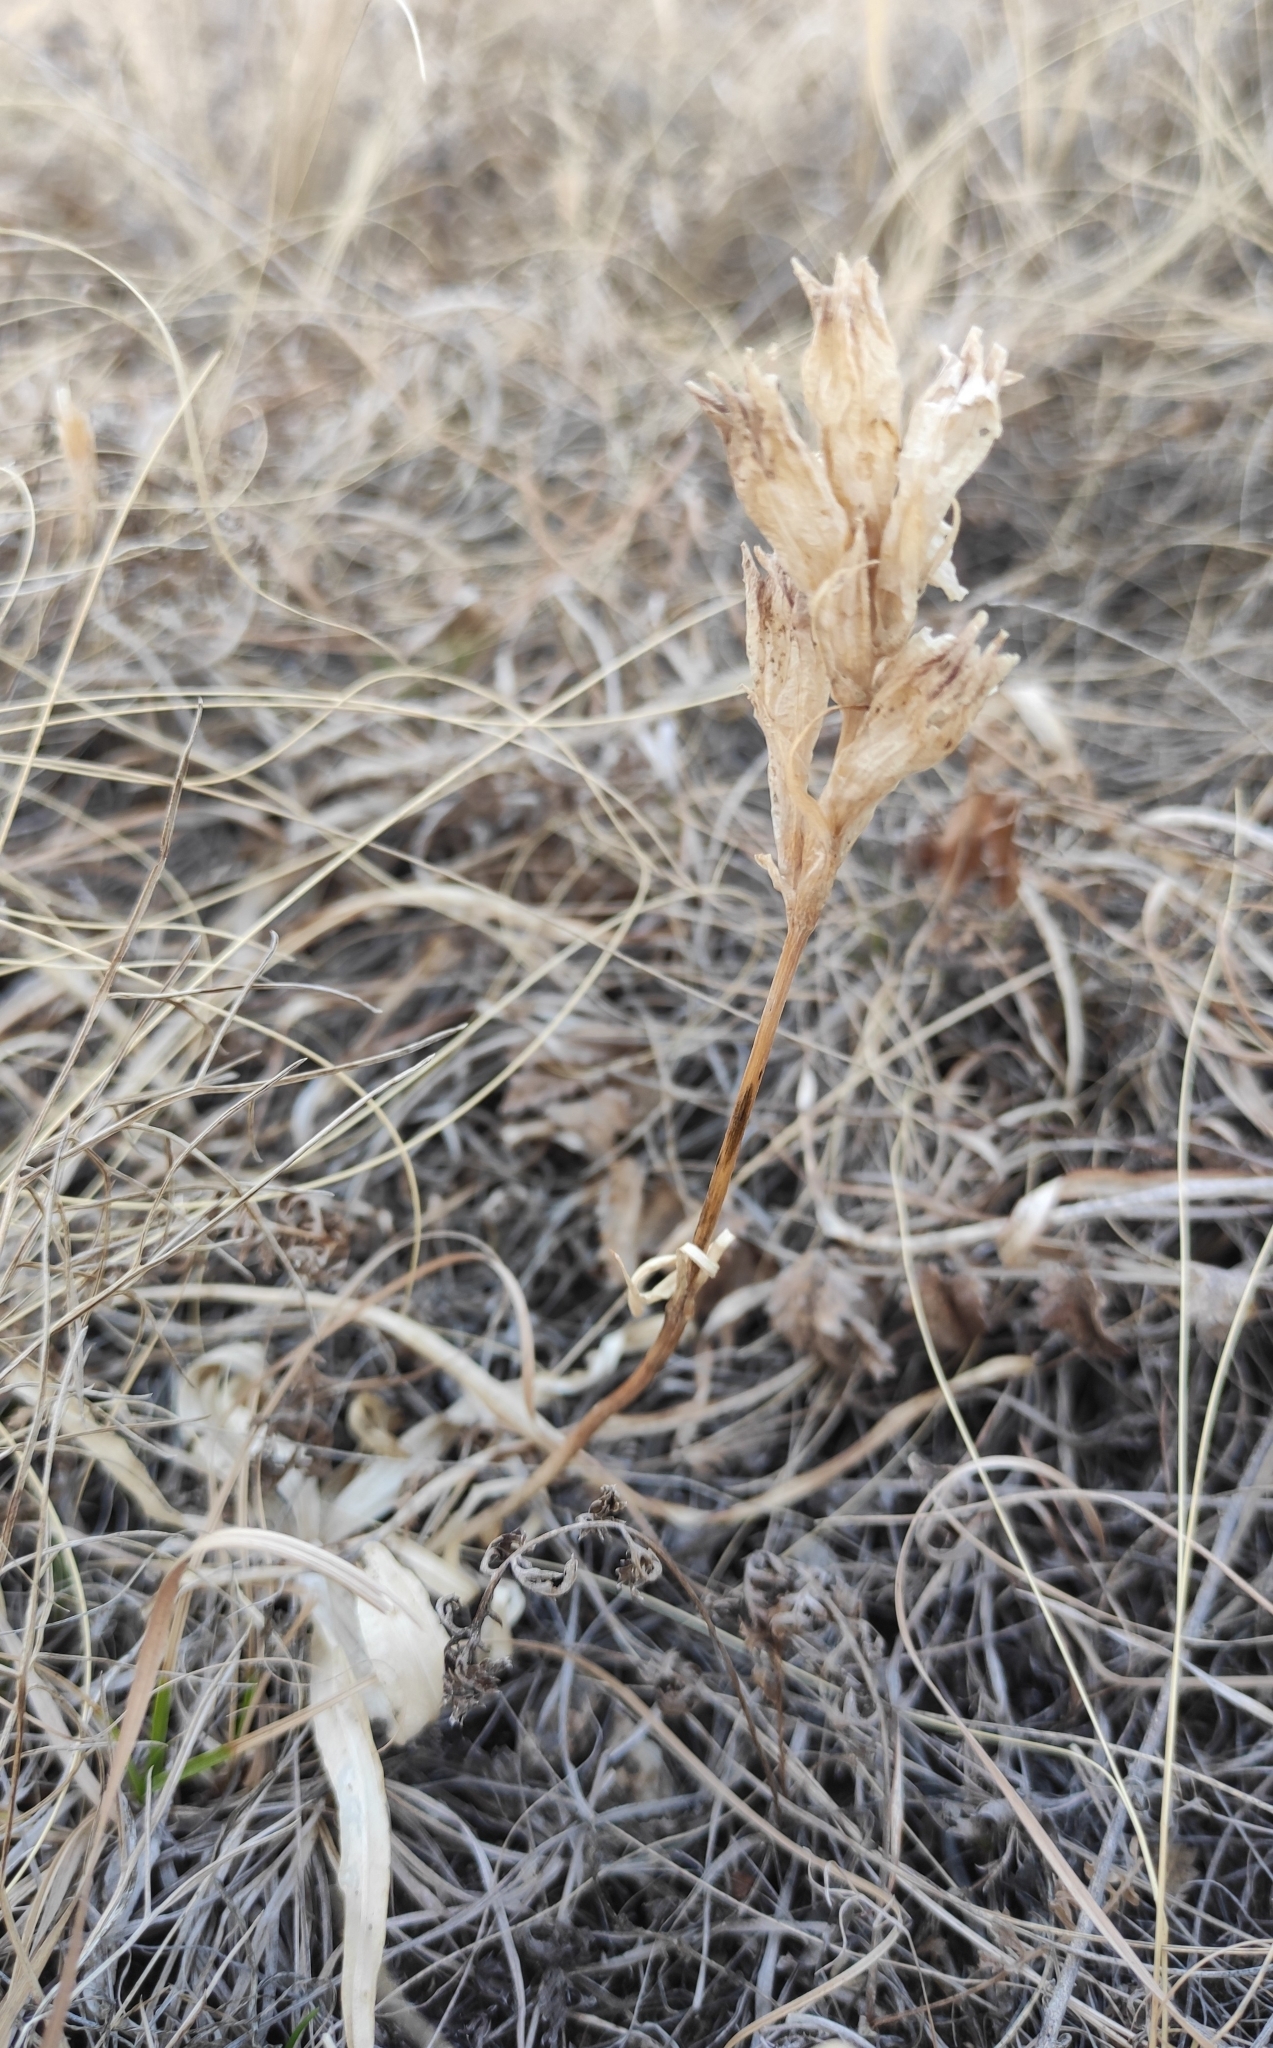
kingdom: Plantae
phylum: Tracheophyta
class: Magnoliopsida
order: Gentianales
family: Gentianaceae
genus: Gentiana
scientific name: Gentiana decumbens
